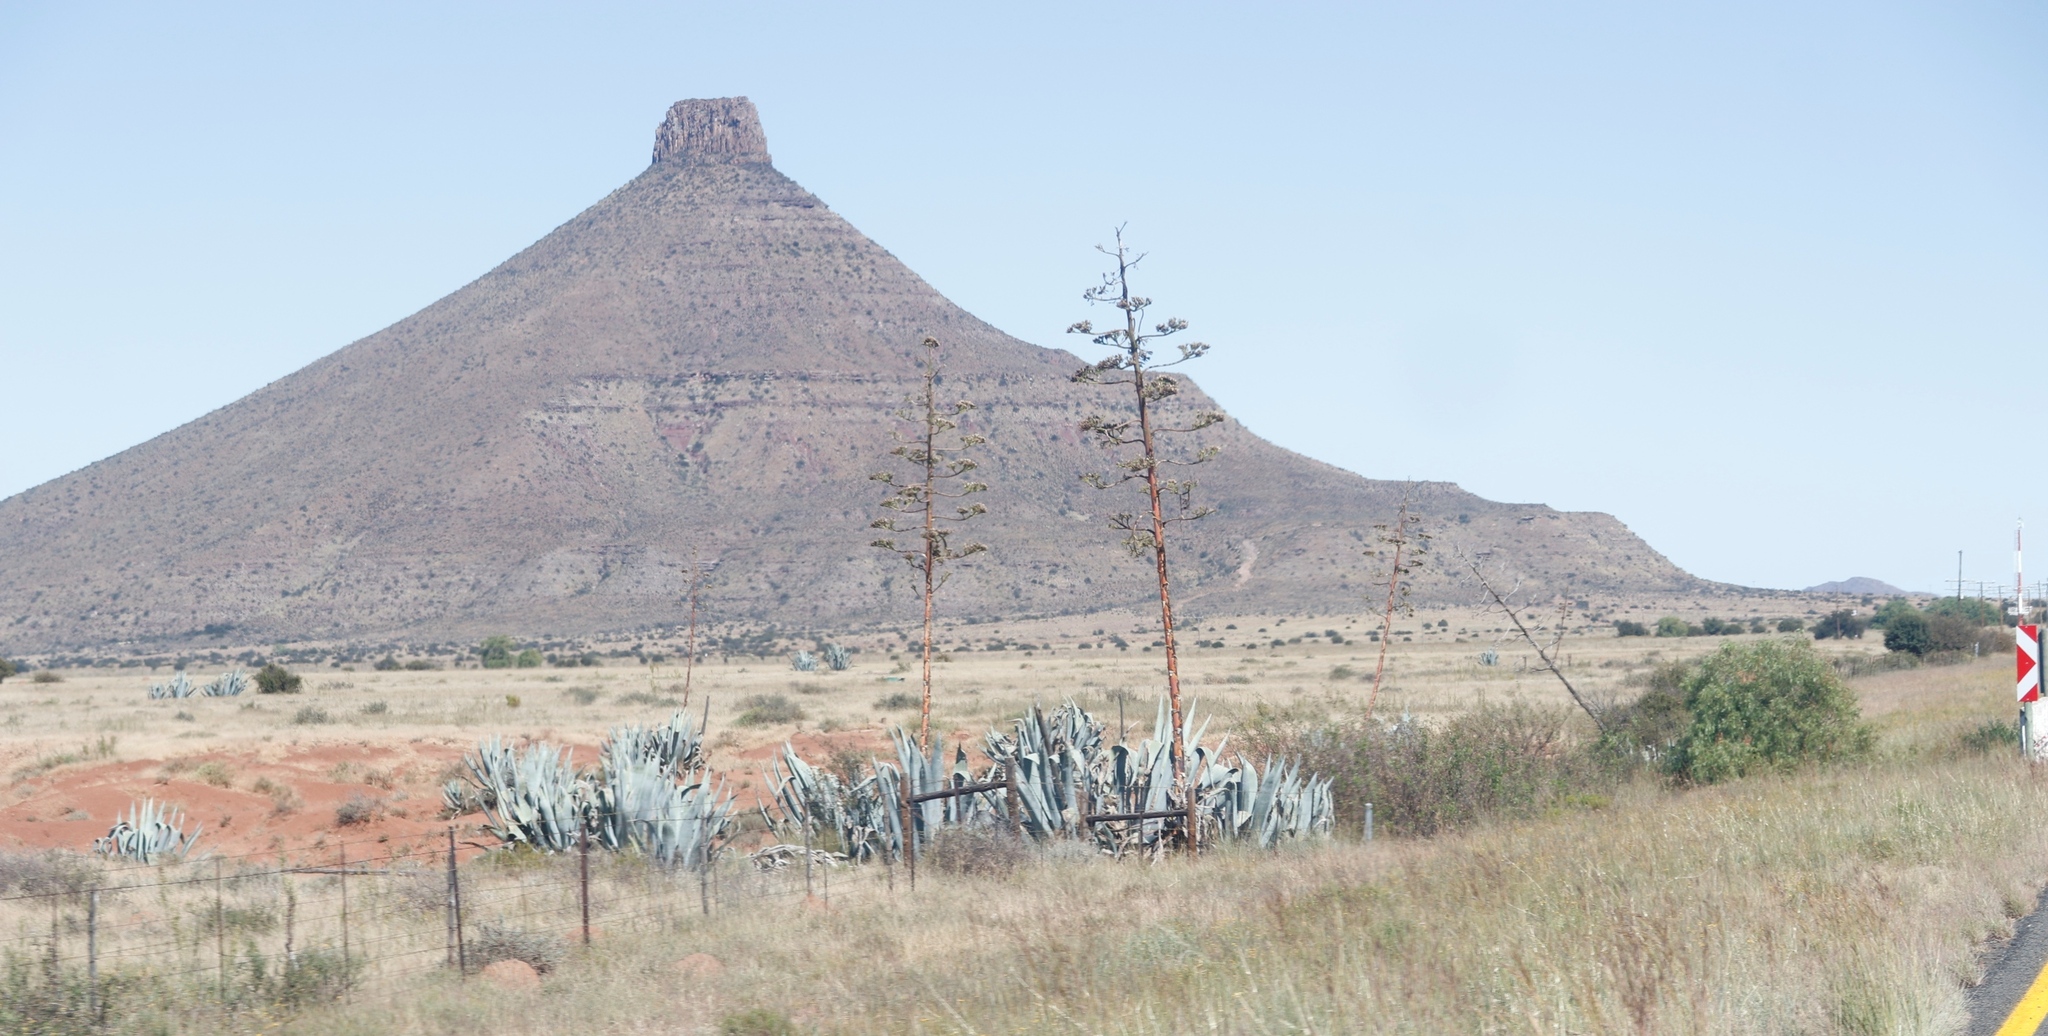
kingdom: Plantae
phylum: Tracheophyta
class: Liliopsida
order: Asparagales
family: Asparagaceae
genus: Agave
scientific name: Agave americana
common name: Centuryplant
